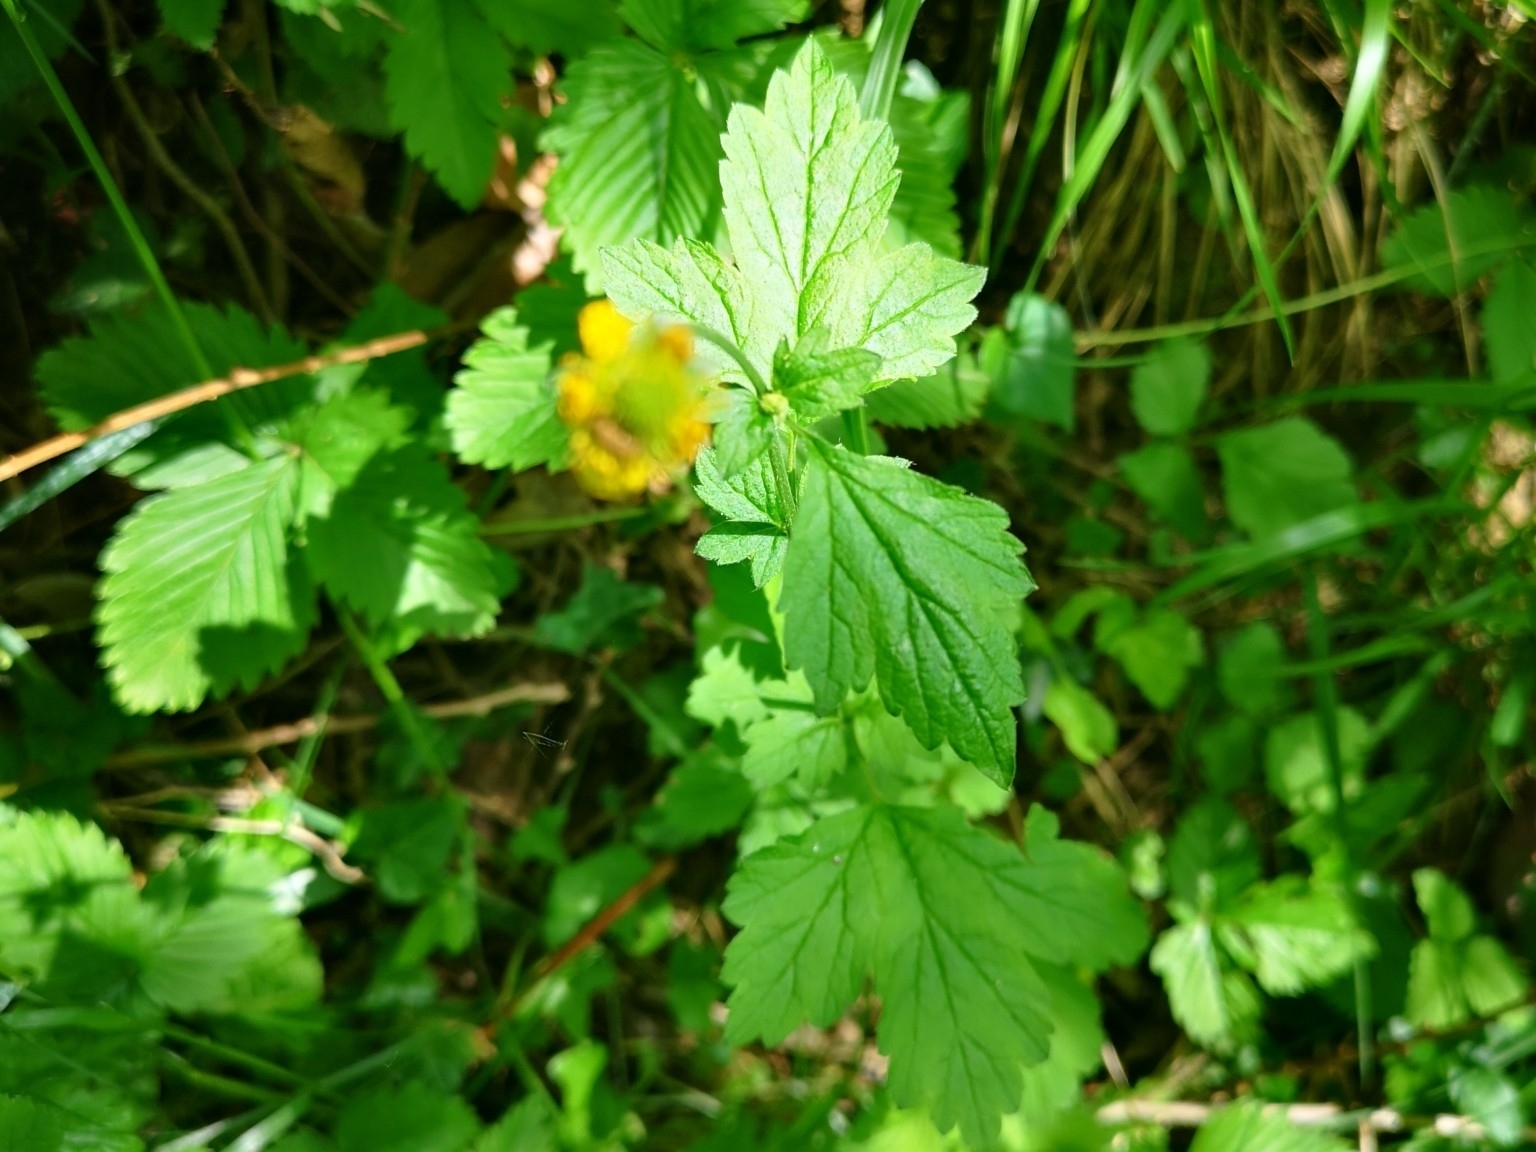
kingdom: Plantae
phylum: Tracheophyta
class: Magnoliopsida
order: Rosales
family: Rosaceae
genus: Geum
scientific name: Geum urbanum
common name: Wood avens
